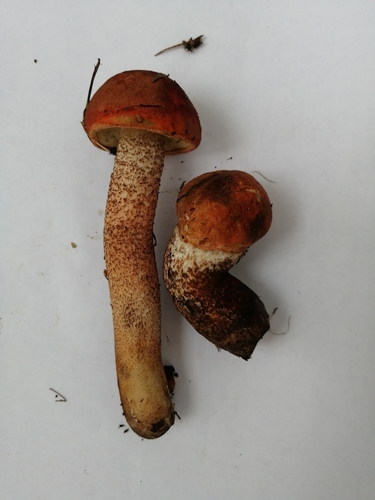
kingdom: Fungi
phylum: Basidiomycota
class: Agaricomycetes
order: Boletales
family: Boletaceae
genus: Leccinum
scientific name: Leccinum aurantiacum
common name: Orange bolete
